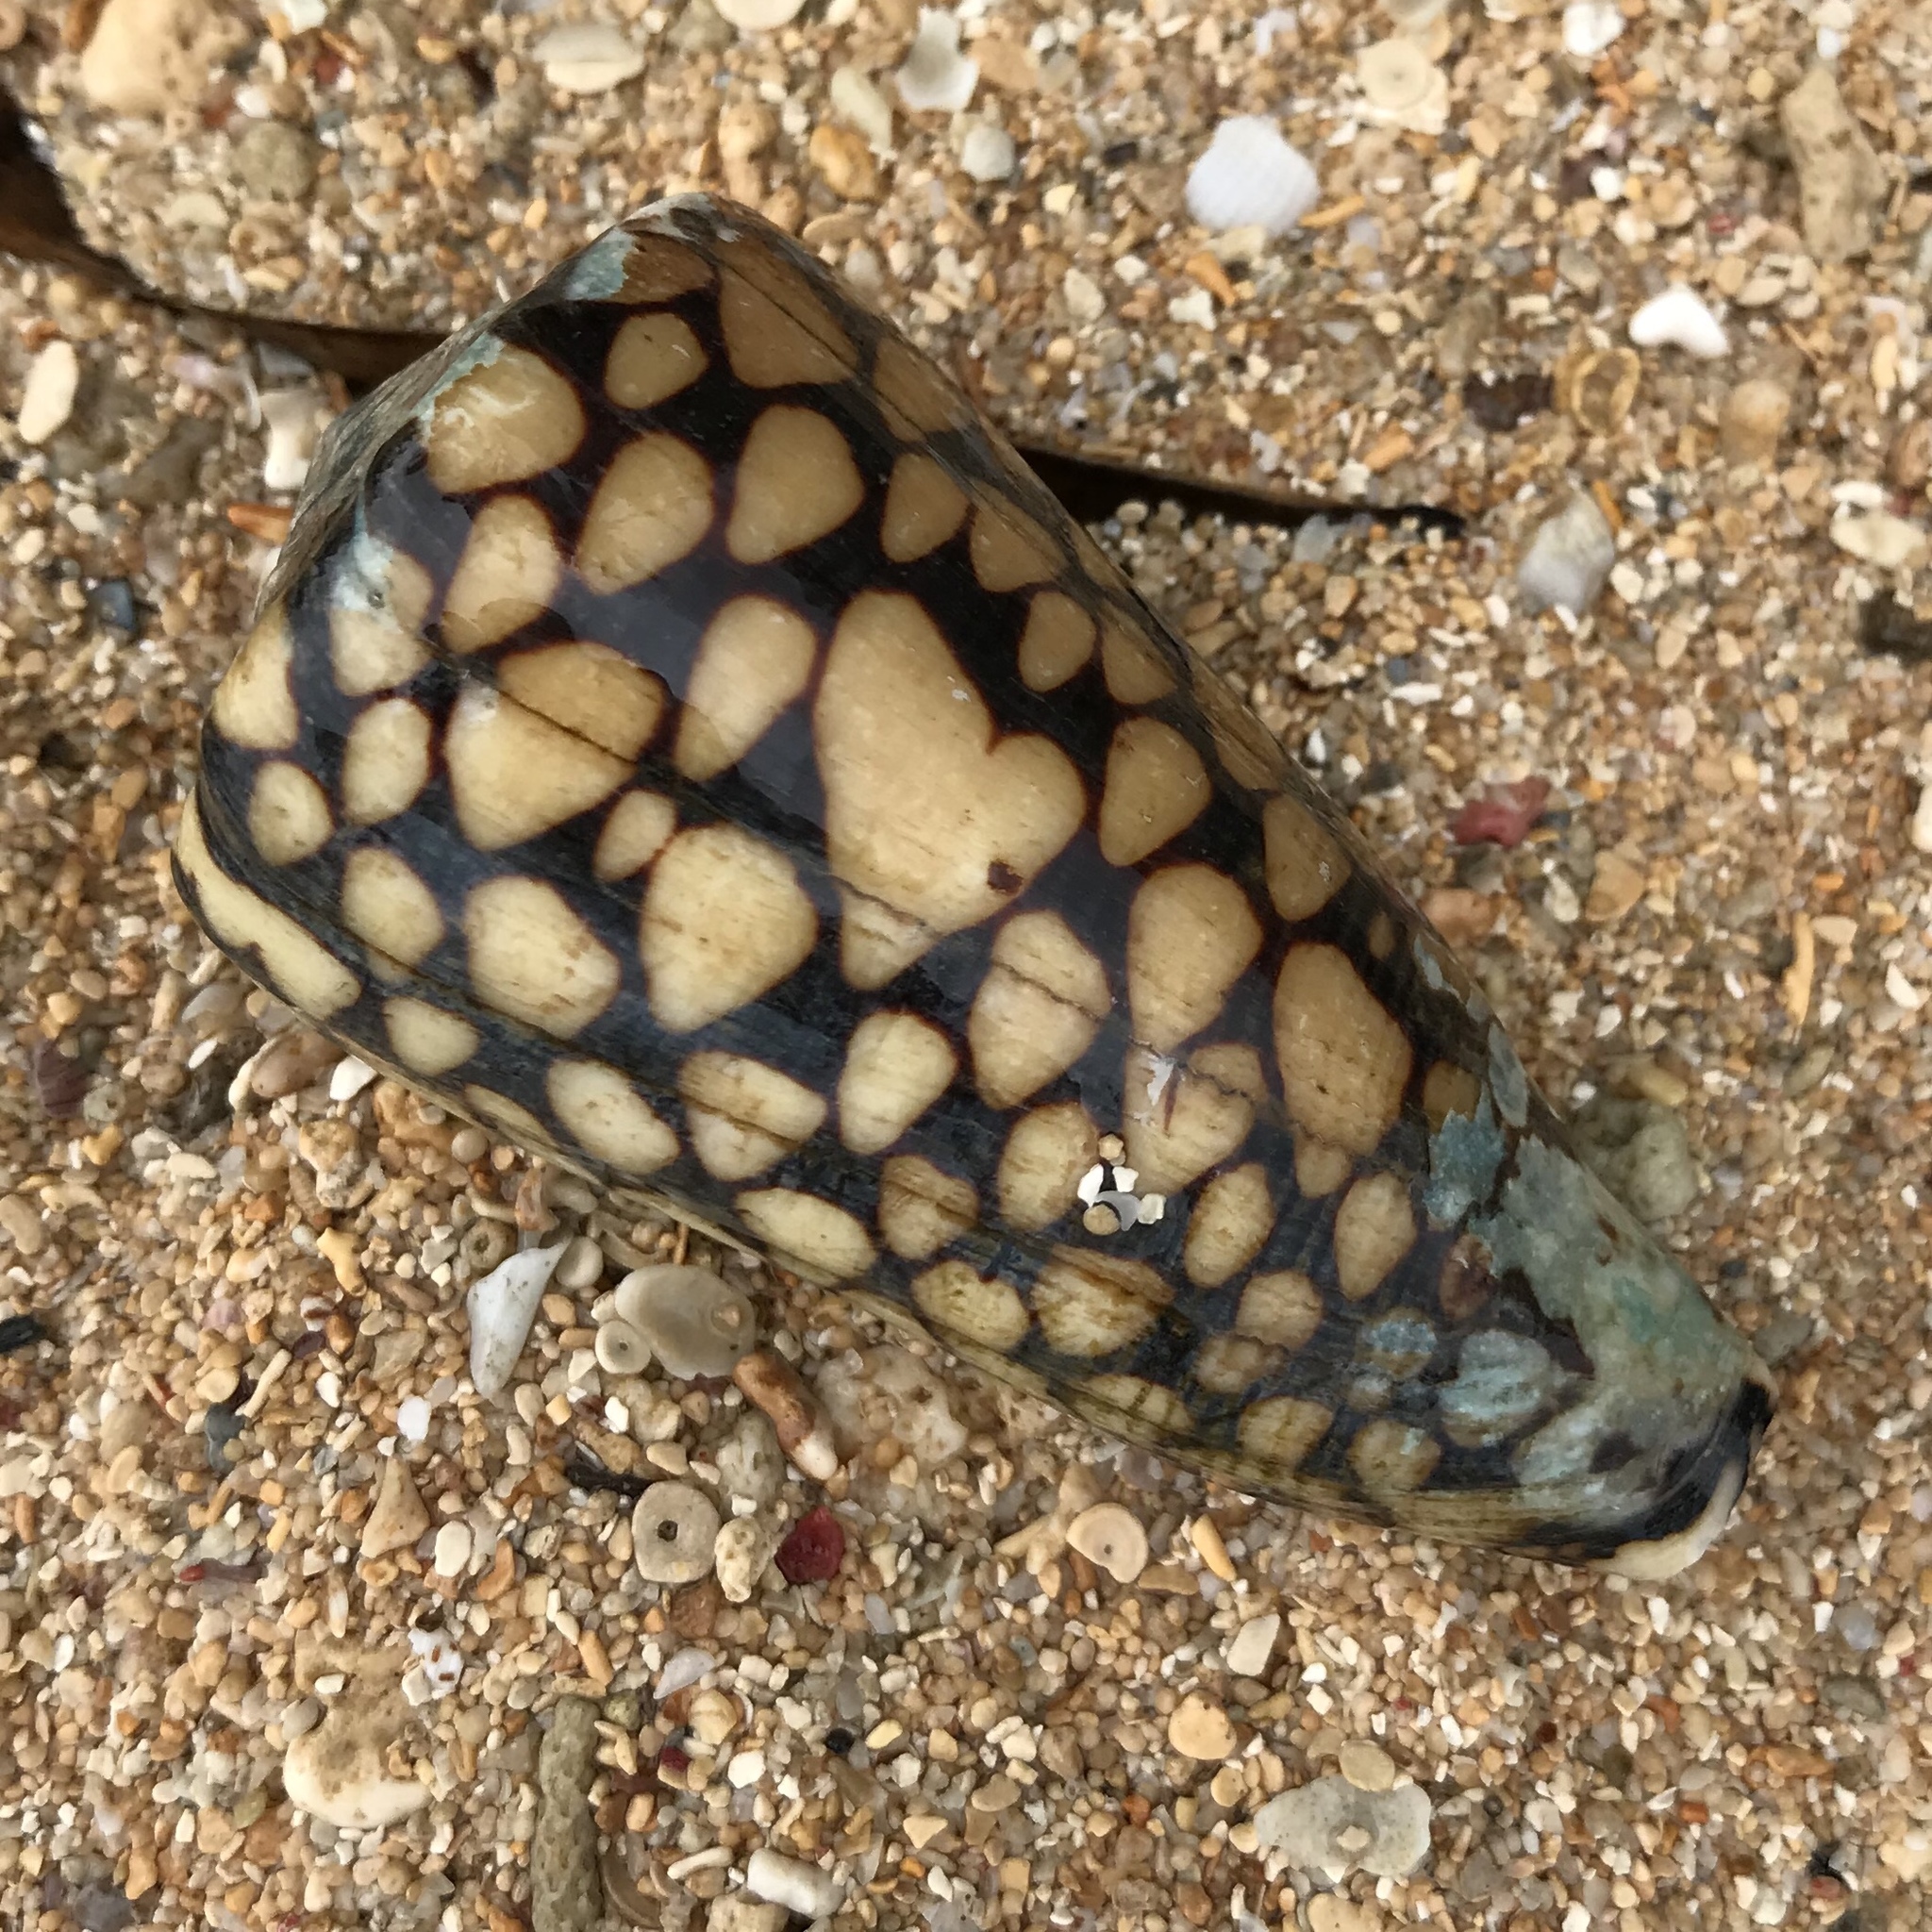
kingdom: Animalia
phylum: Mollusca
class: Gastropoda
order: Neogastropoda
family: Conidae
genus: Conus
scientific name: Conus marmoreus
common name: Marbled cone
